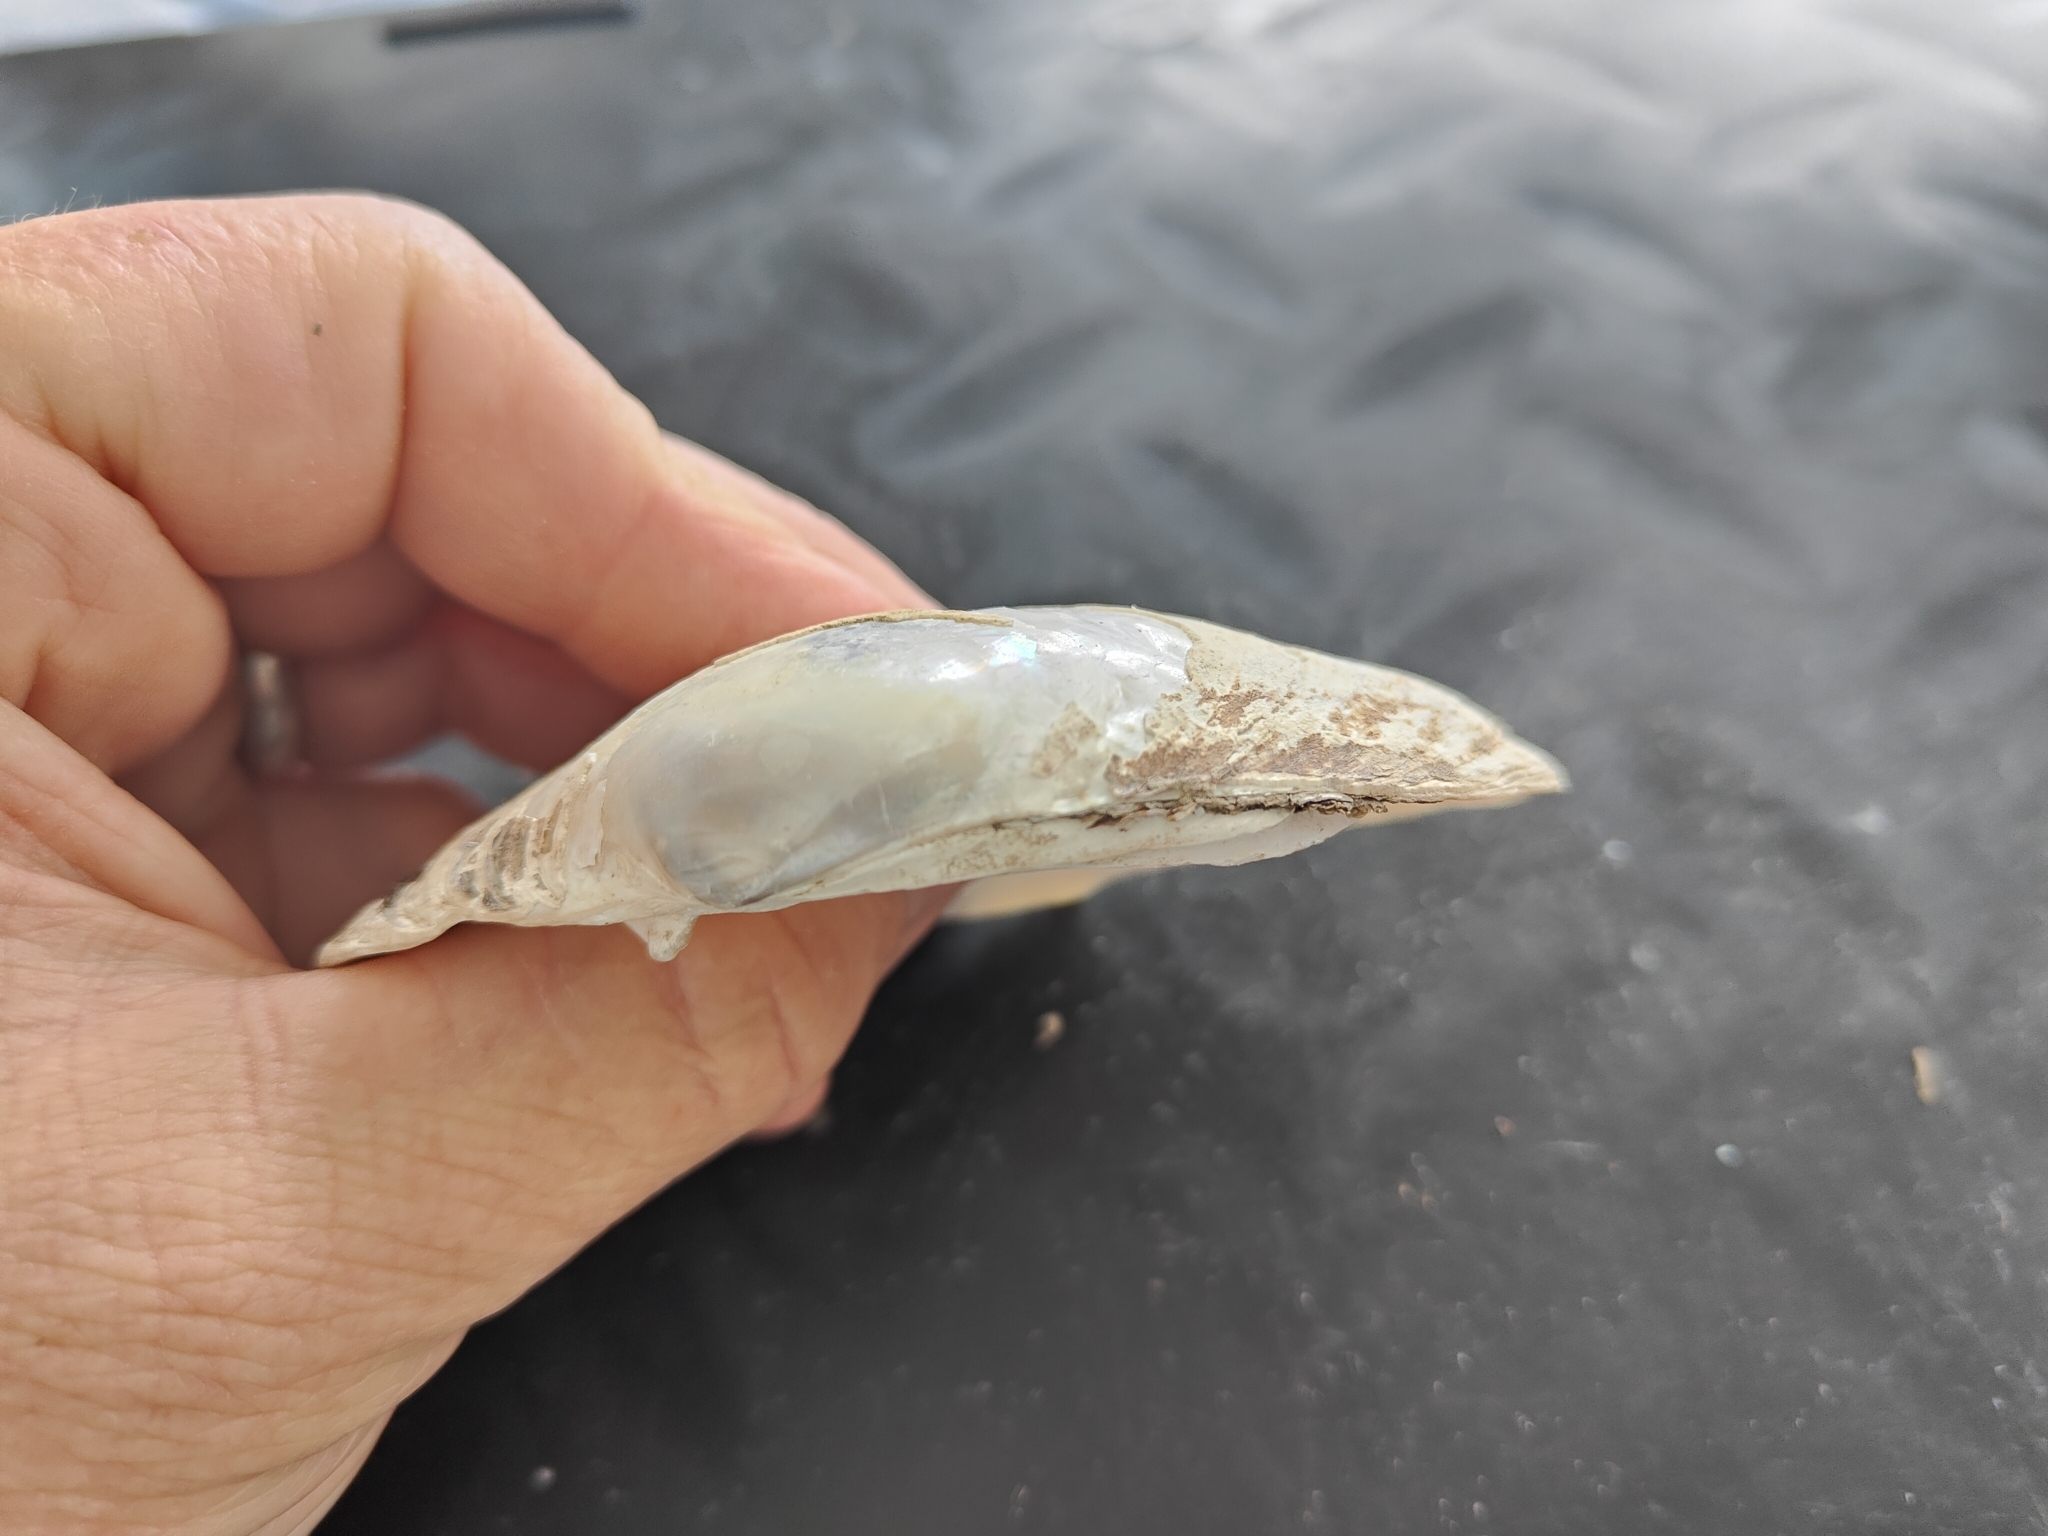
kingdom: Animalia
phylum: Mollusca
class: Bivalvia
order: Unionida
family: Unionidae
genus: Lampsilis
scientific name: Lampsilis cardium
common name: Plain pocketbook
